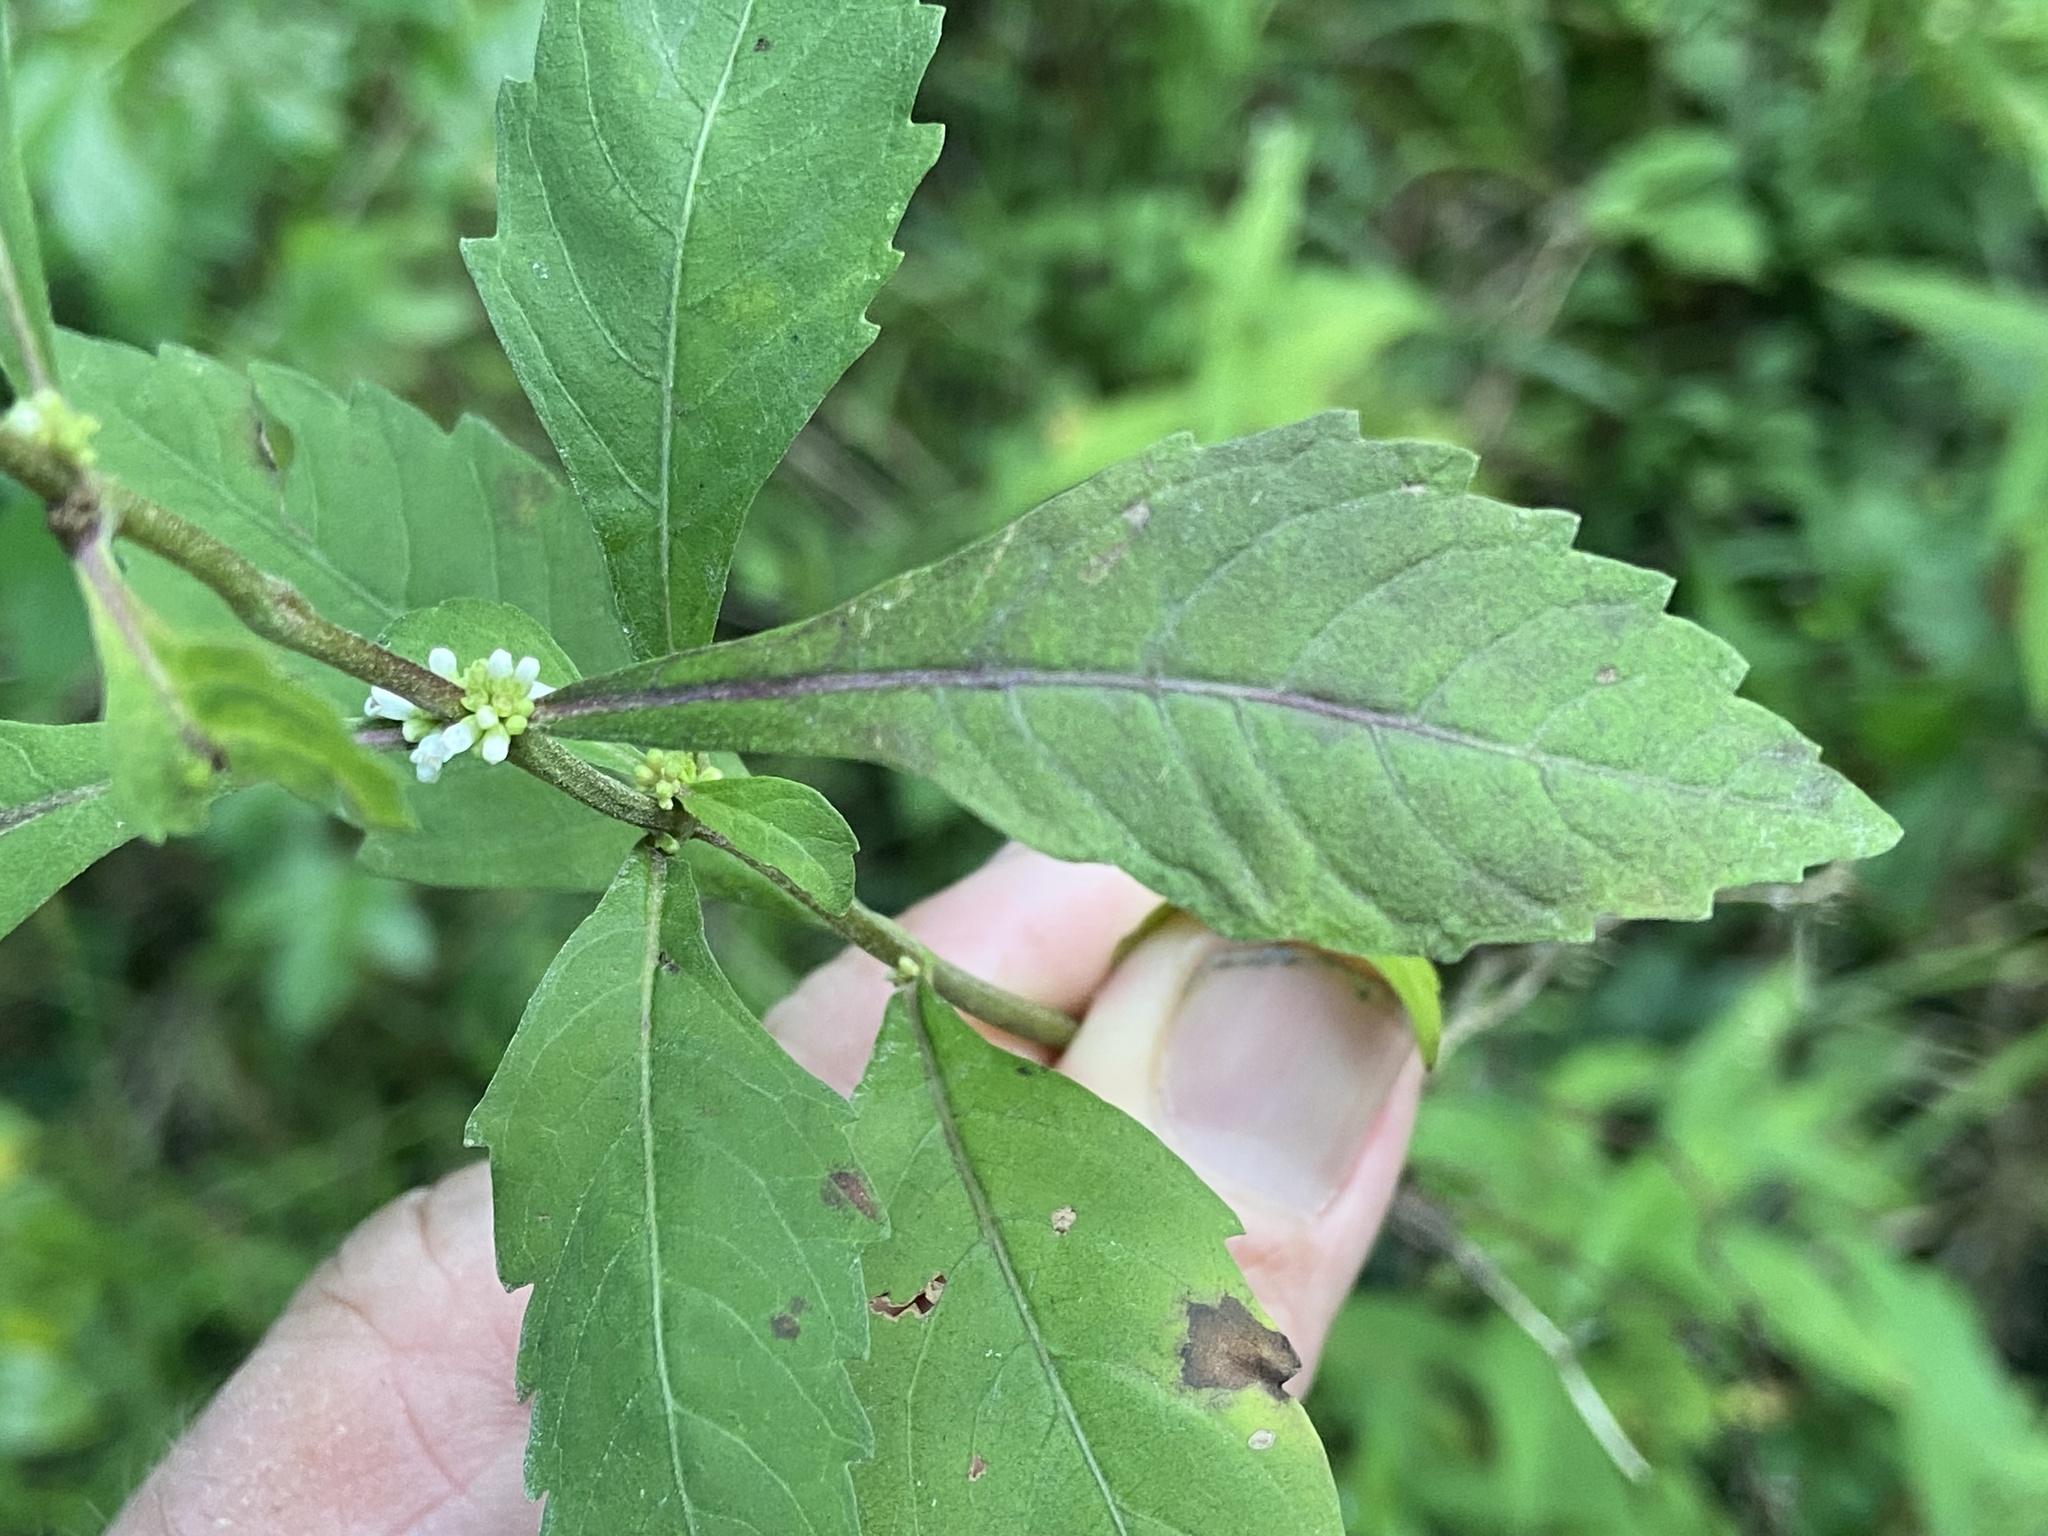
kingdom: Plantae
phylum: Tracheophyta
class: Magnoliopsida
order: Lamiales
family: Lamiaceae
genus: Lycopus
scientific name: Lycopus virginicus
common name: Bugleweed
